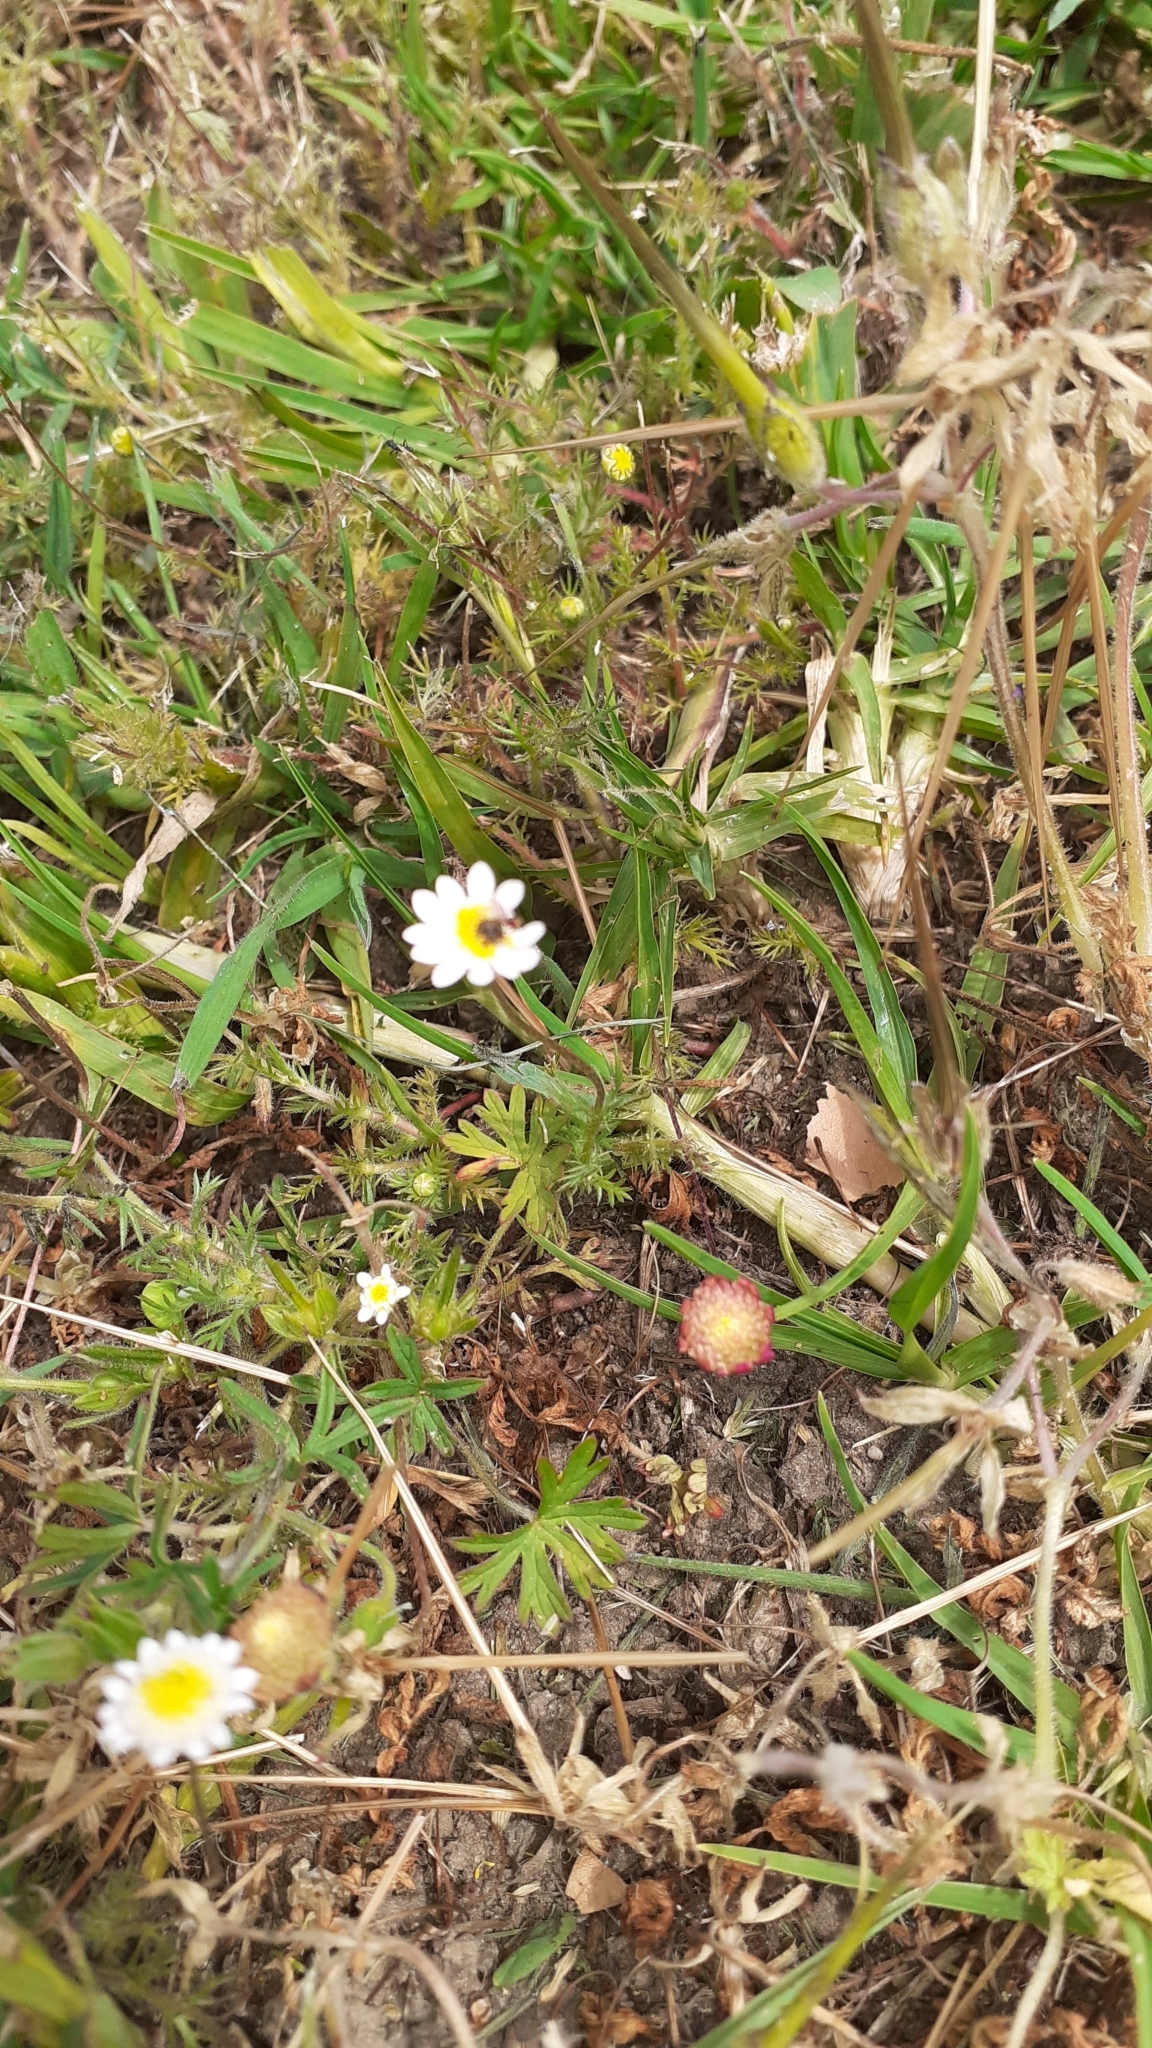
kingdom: Plantae
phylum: Tracheophyta
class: Magnoliopsida
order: Asterales
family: Asteraceae
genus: Cotula
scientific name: Cotula turbinata
